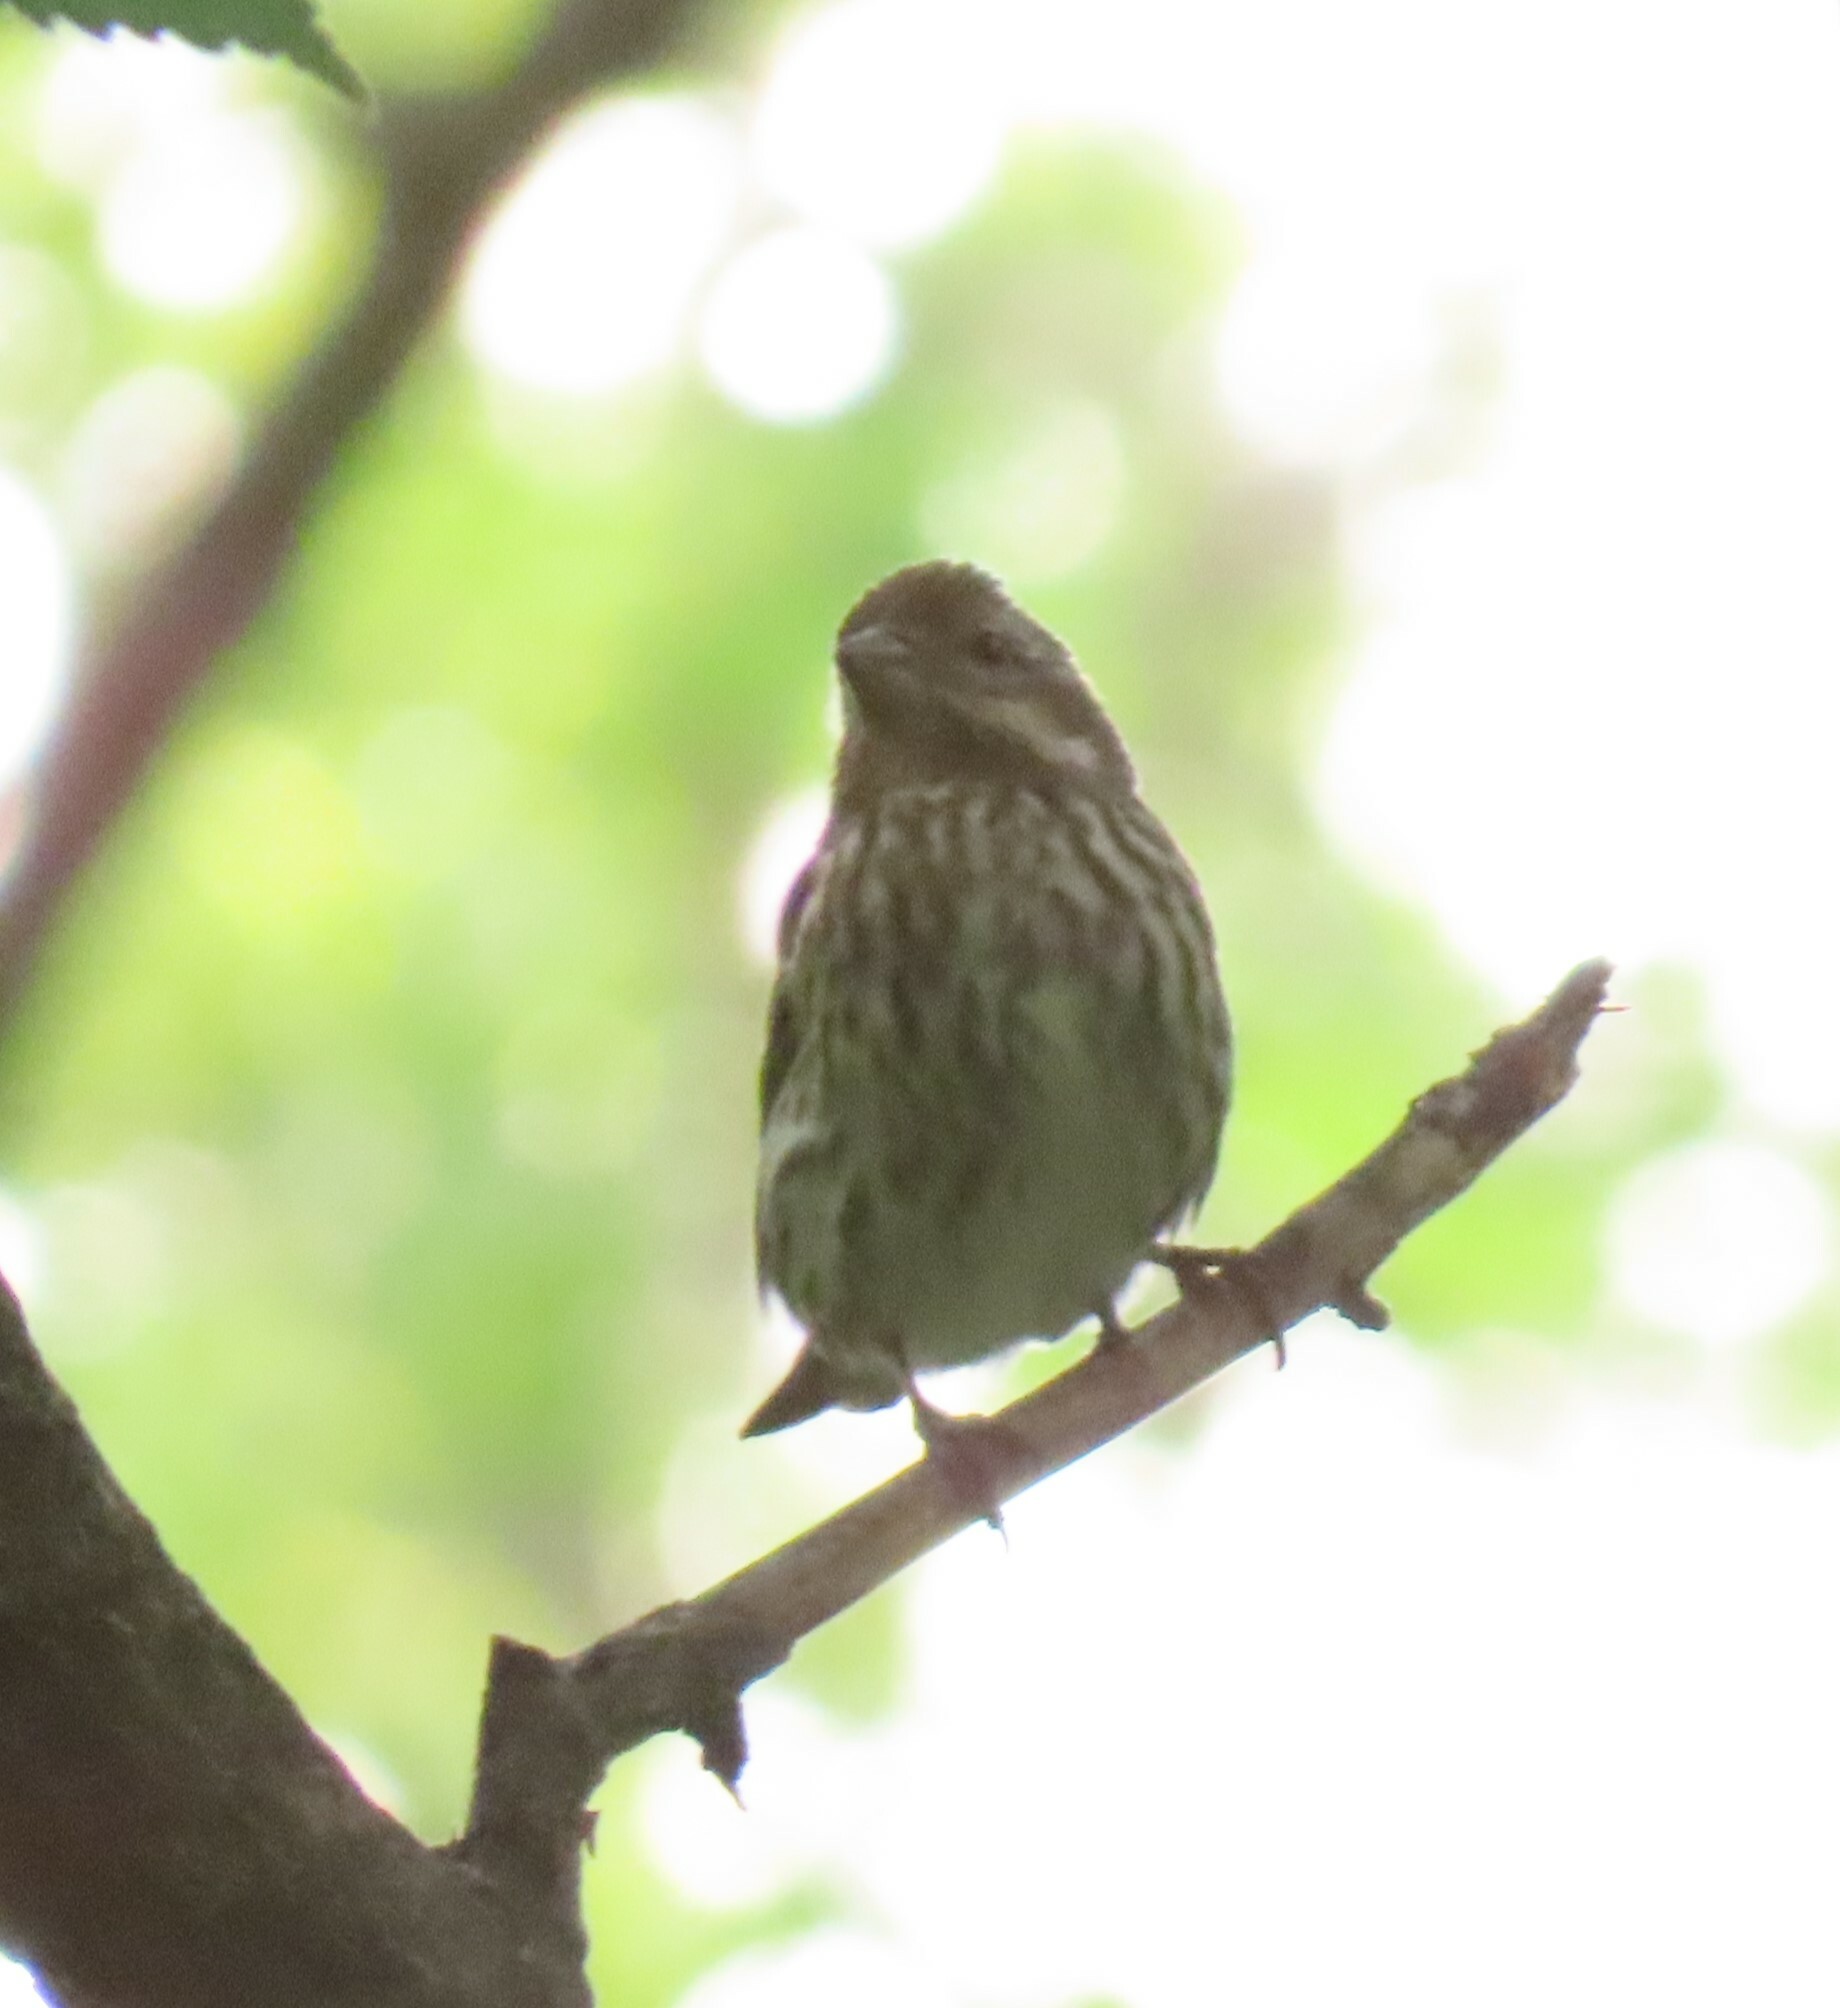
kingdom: Animalia
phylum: Chordata
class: Aves
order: Passeriformes
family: Fringillidae
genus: Haemorhous
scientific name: Haemorhous purpureus
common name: Purple finch
